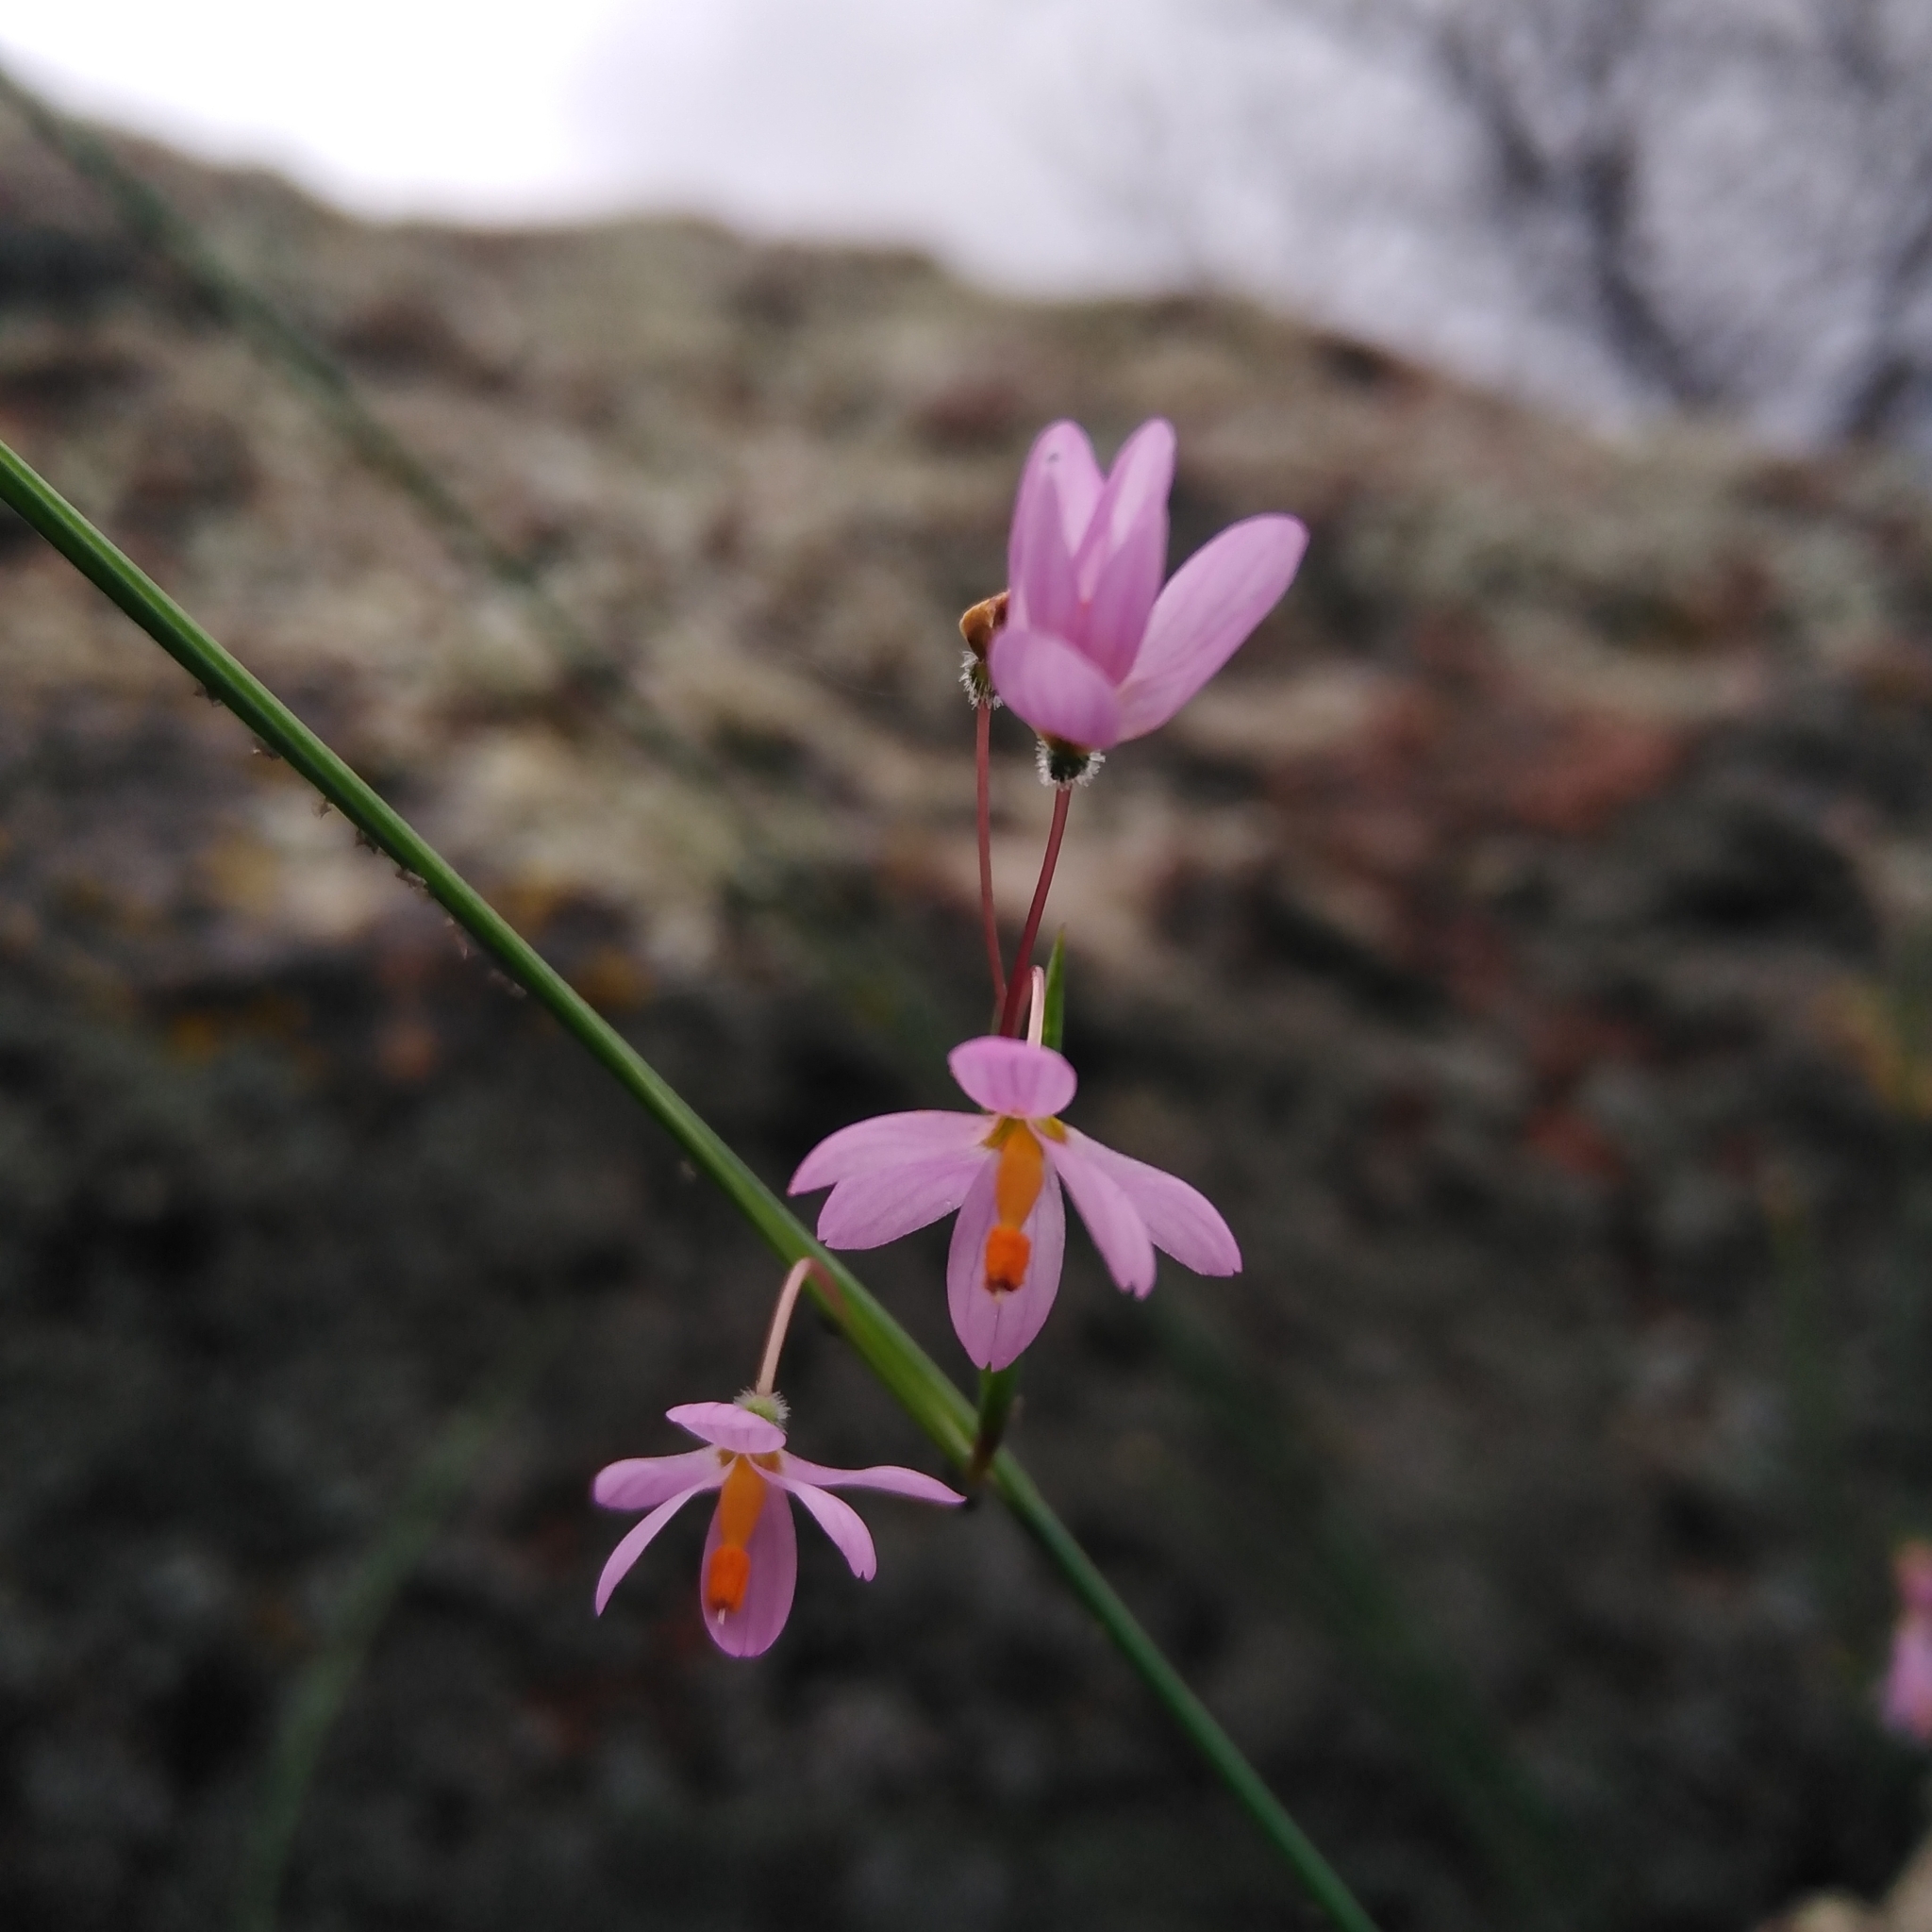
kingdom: Plantae
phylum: Tracheophyta
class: Liliopsida
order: Asparagales
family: Iridaceae
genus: Olsynium
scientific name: Olsynium scirpoideum
